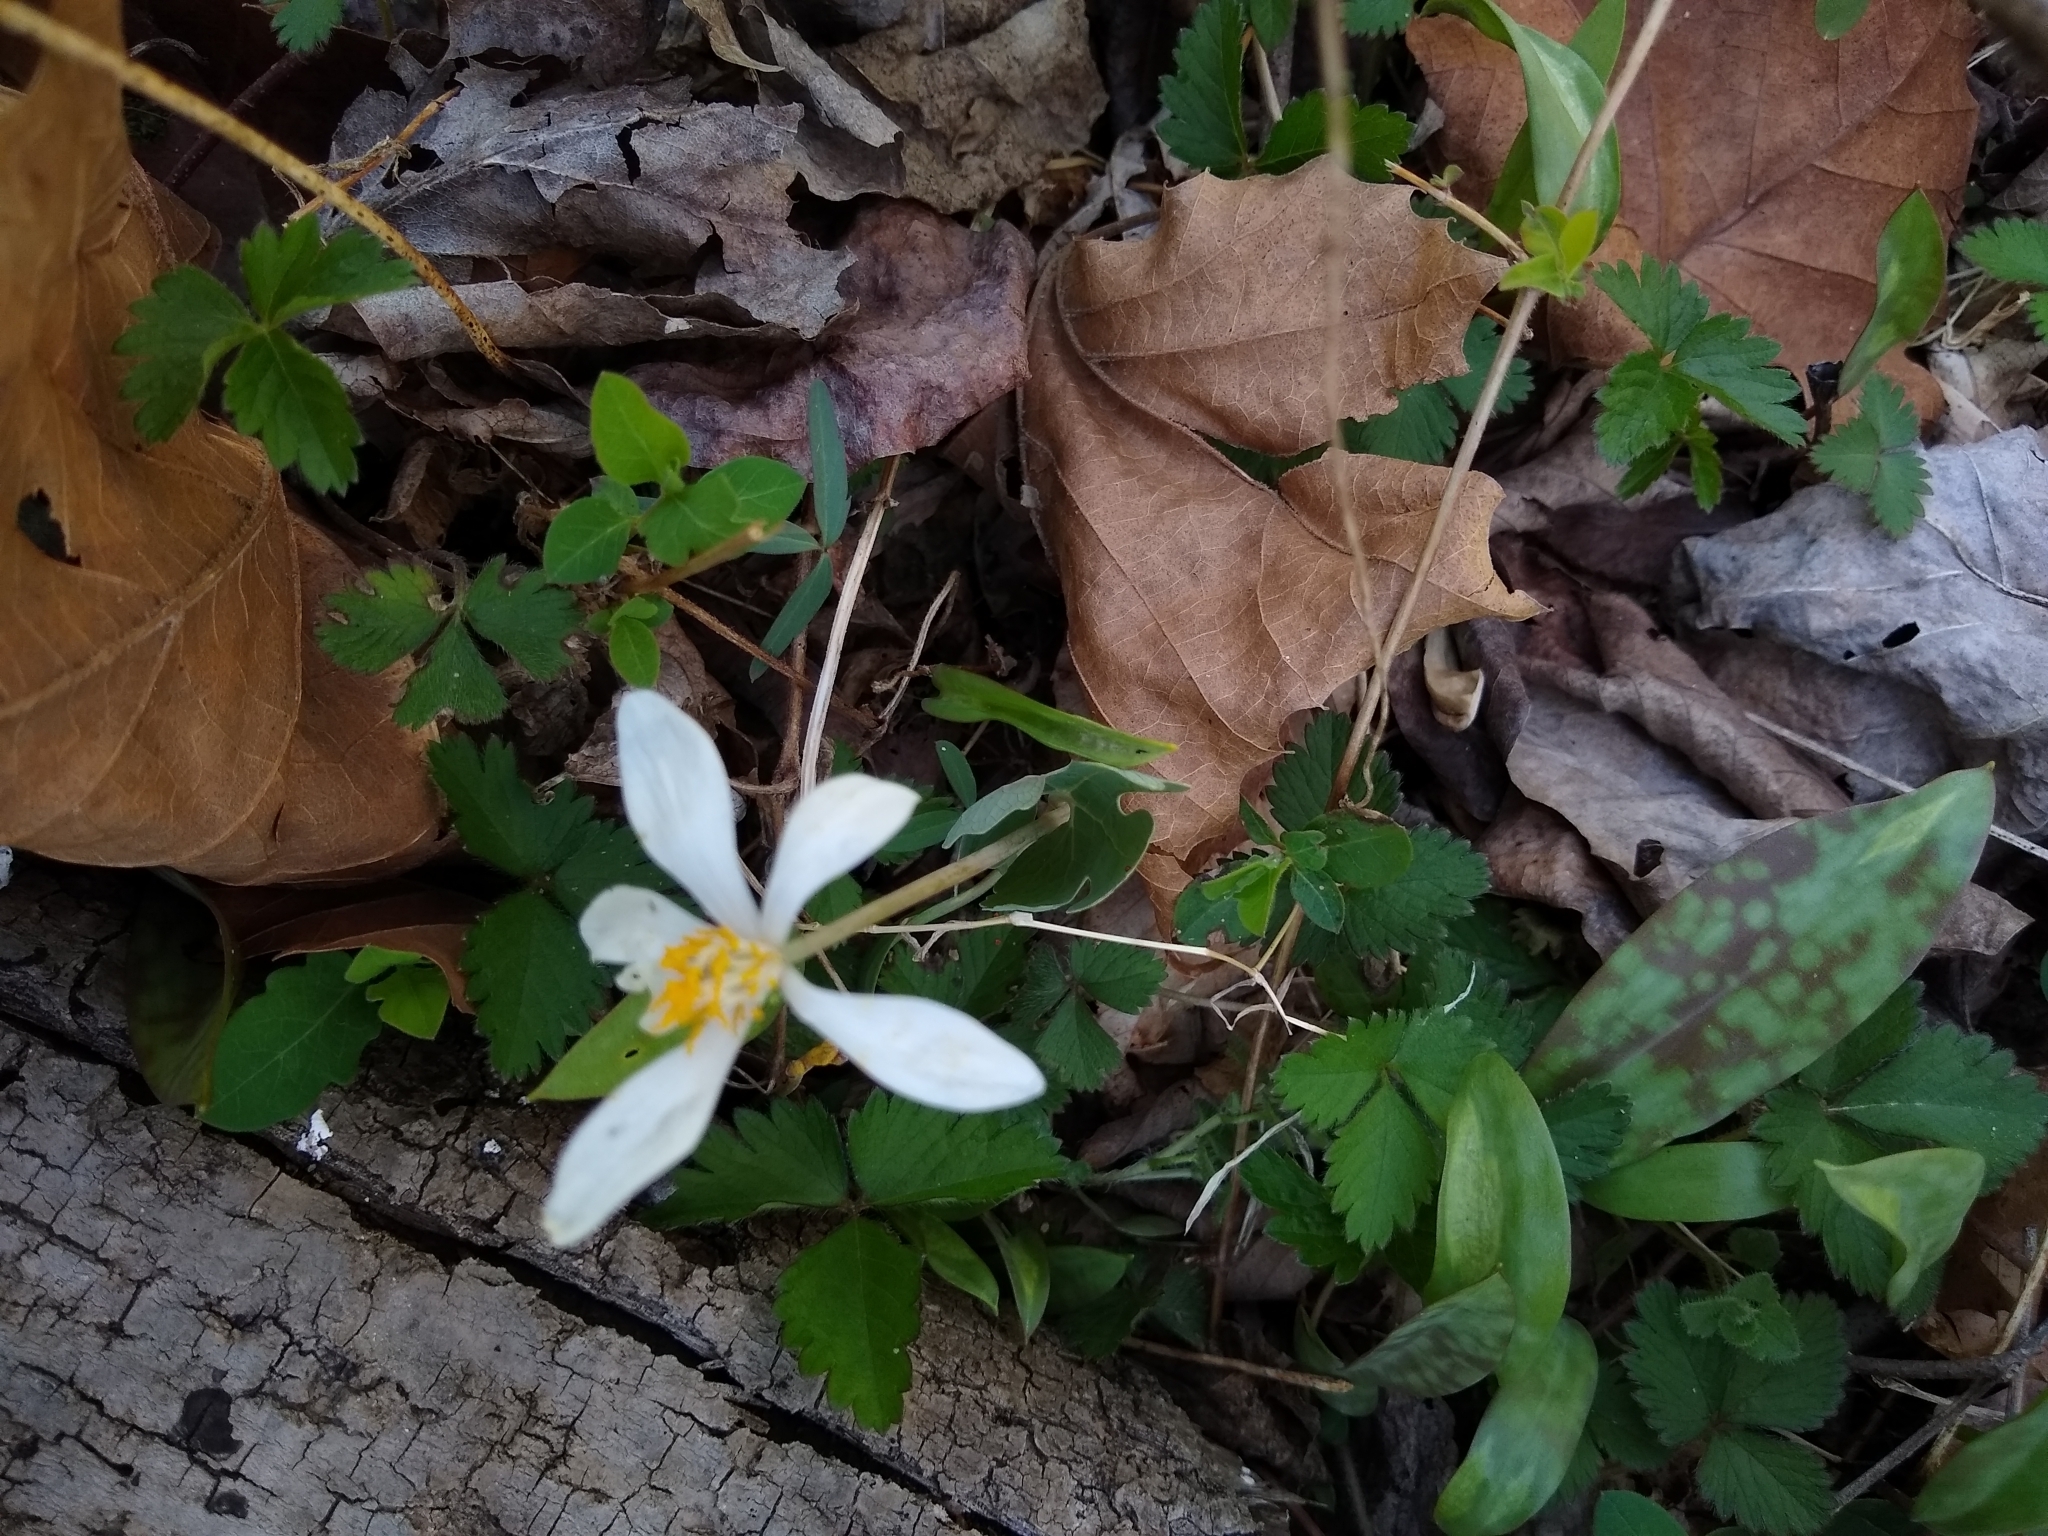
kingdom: Plantae
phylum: Tracheophyta
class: Magnoliopsida
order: Ranunculales
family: Papaveraceae
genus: Sanguinaria
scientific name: Sanguinaria canadensis
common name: Bloodroot
